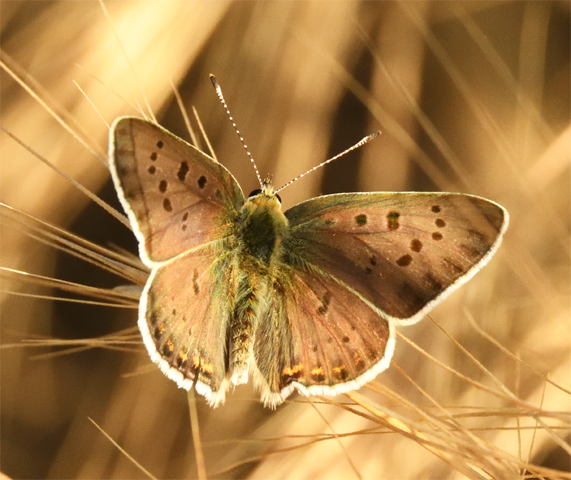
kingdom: Animalia
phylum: Arthropoda
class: Insecta
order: Lepidoptera
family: Lycaenidae
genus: Loweia
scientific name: Loweia tityrus
